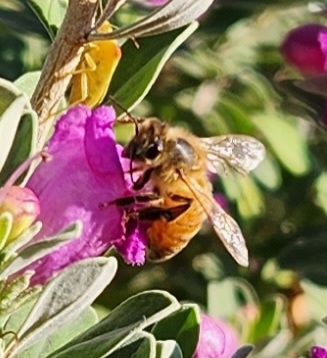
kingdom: Animalia
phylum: Arthropoda
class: Insecta
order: Hymenoptera
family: Apidae
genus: Apis
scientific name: Apis mellifera
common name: Honey bee
